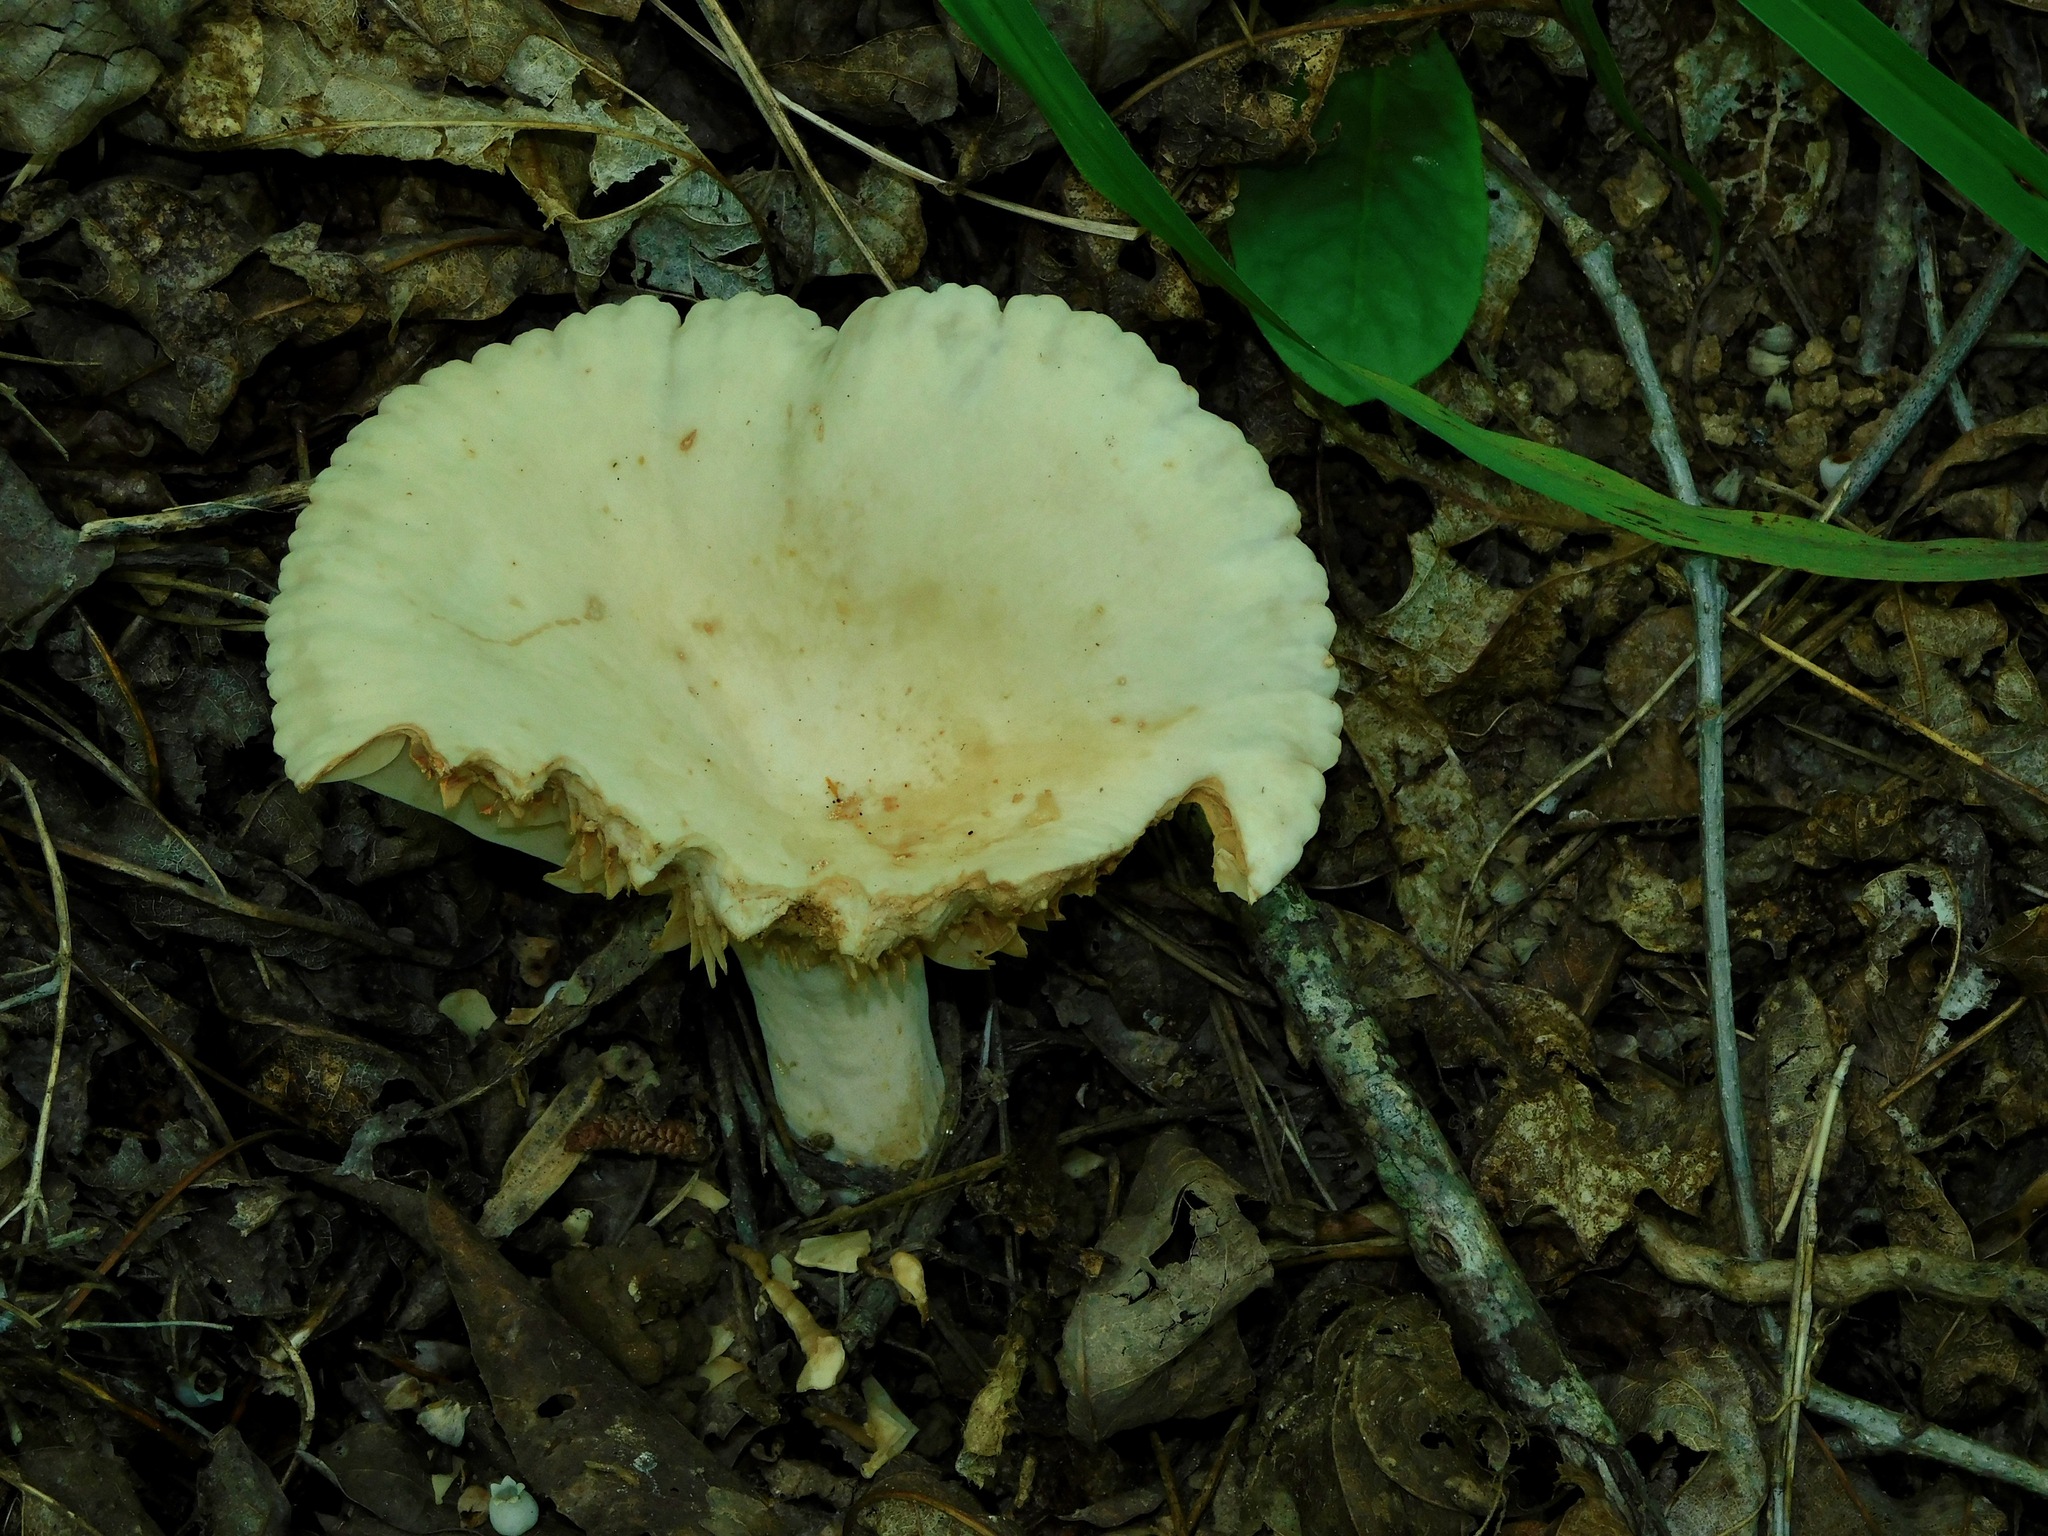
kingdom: Fungi
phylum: Basidiomycota
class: Agaricomycetes
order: Russulales
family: Russulaceae
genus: Lactarius
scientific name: Lactarius subplinthogalus
